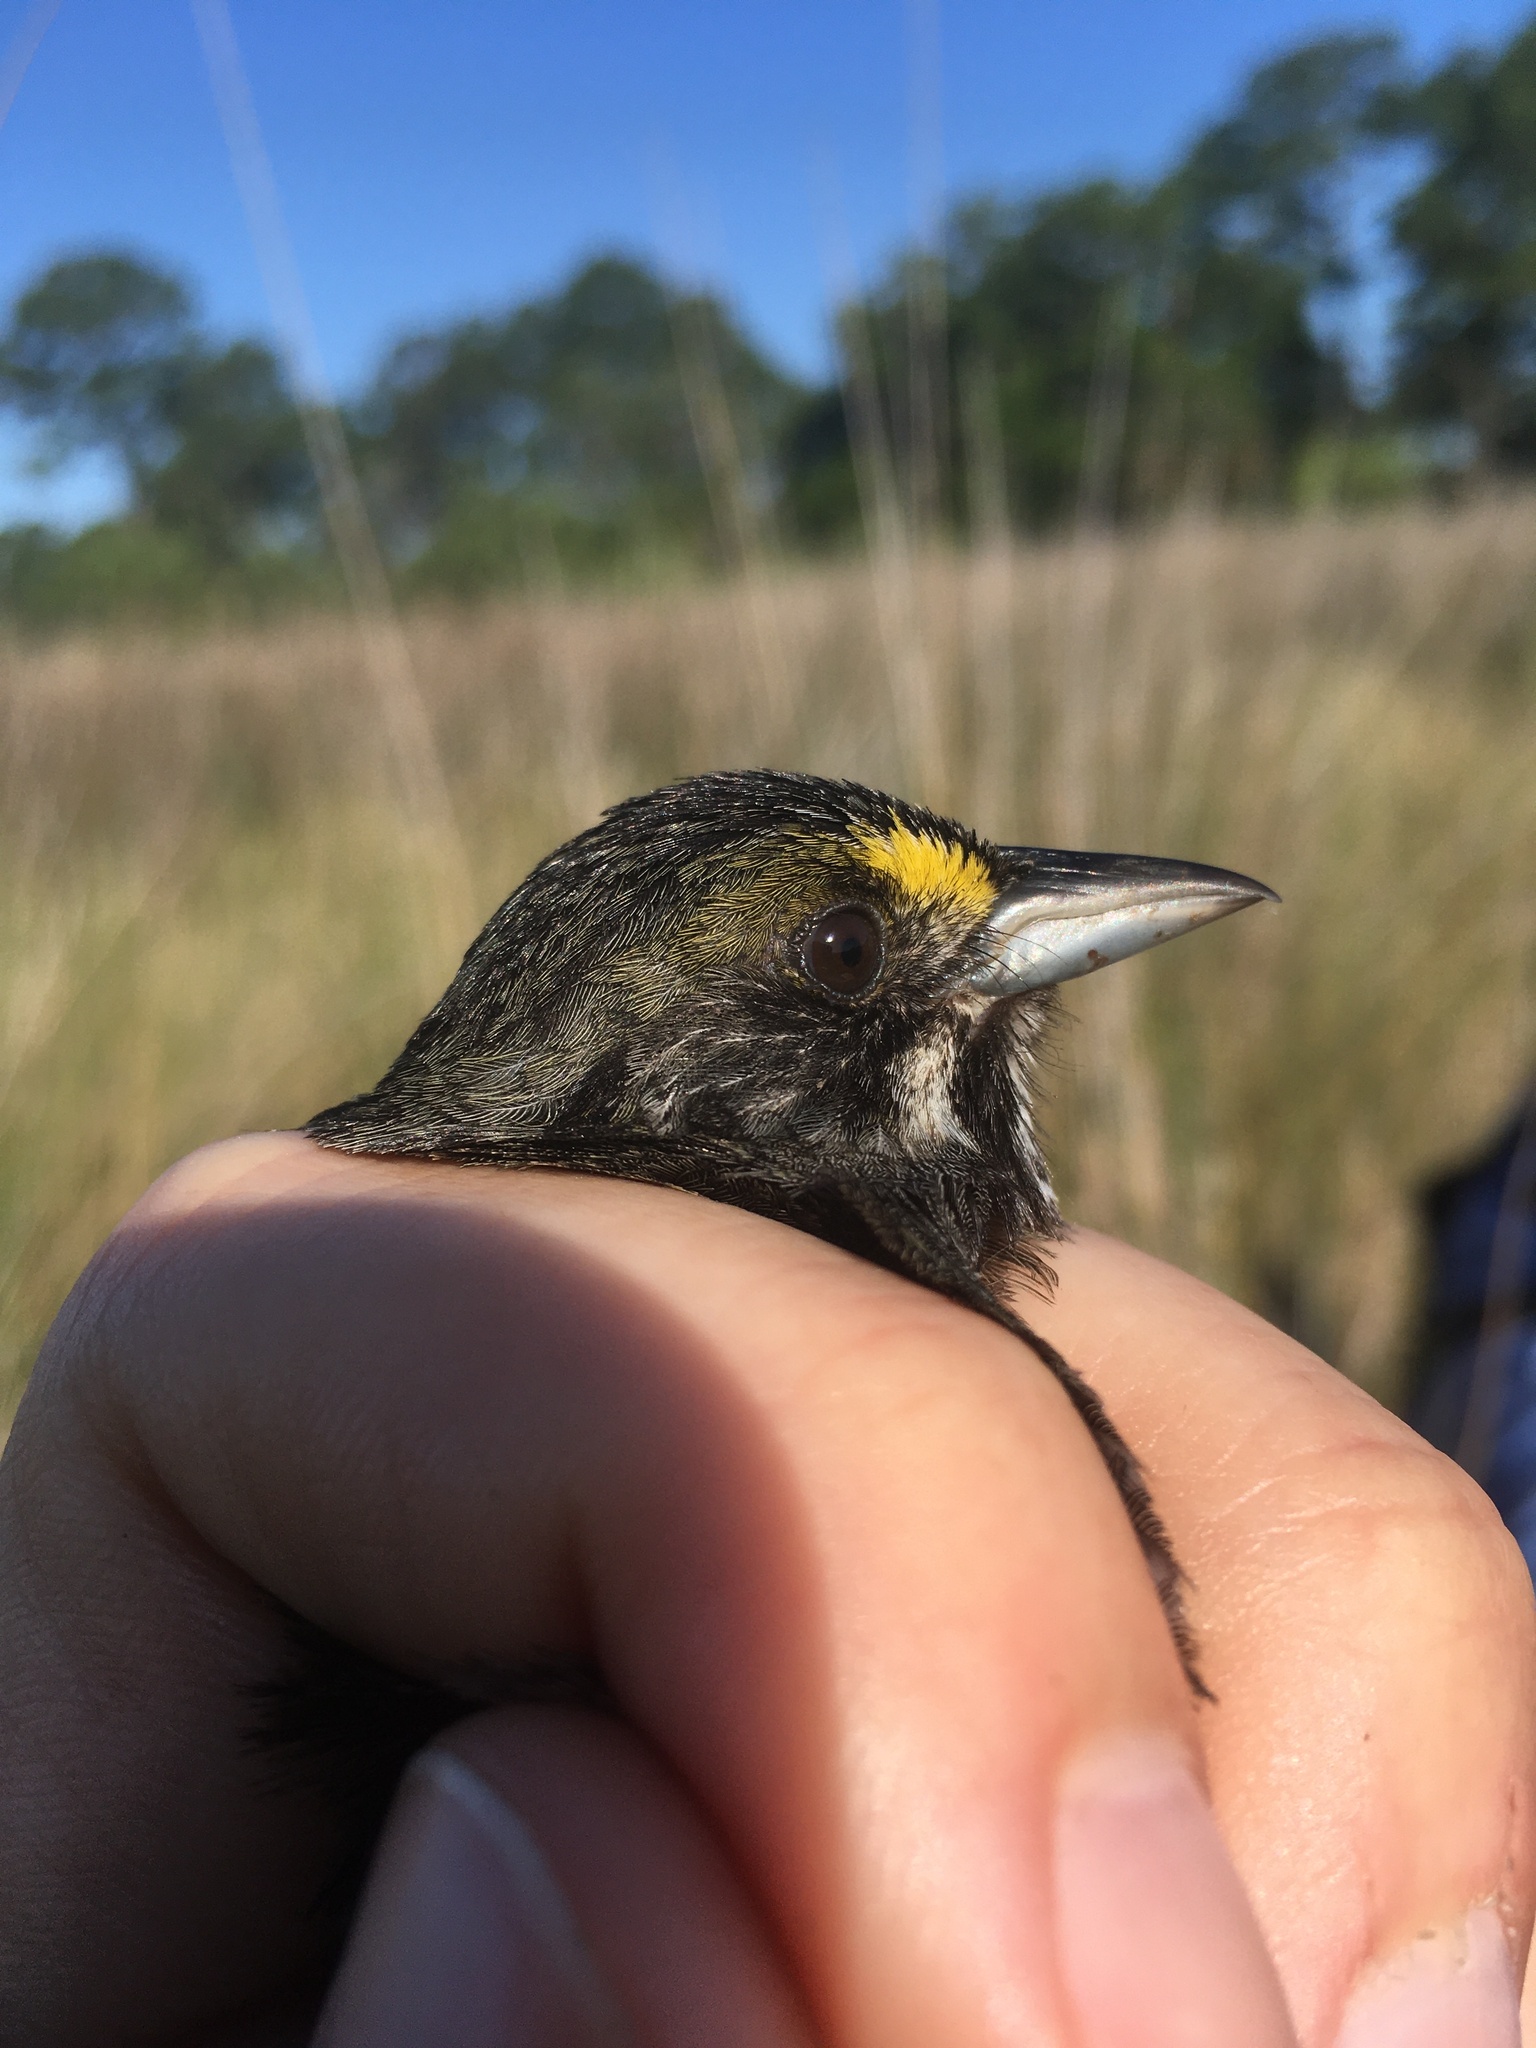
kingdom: Animalia
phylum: Chordata
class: Aves
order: Passeriformes
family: Passerellidae
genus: Ammospiza
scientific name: Ammospiza maritima
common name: Seaside sparrow
